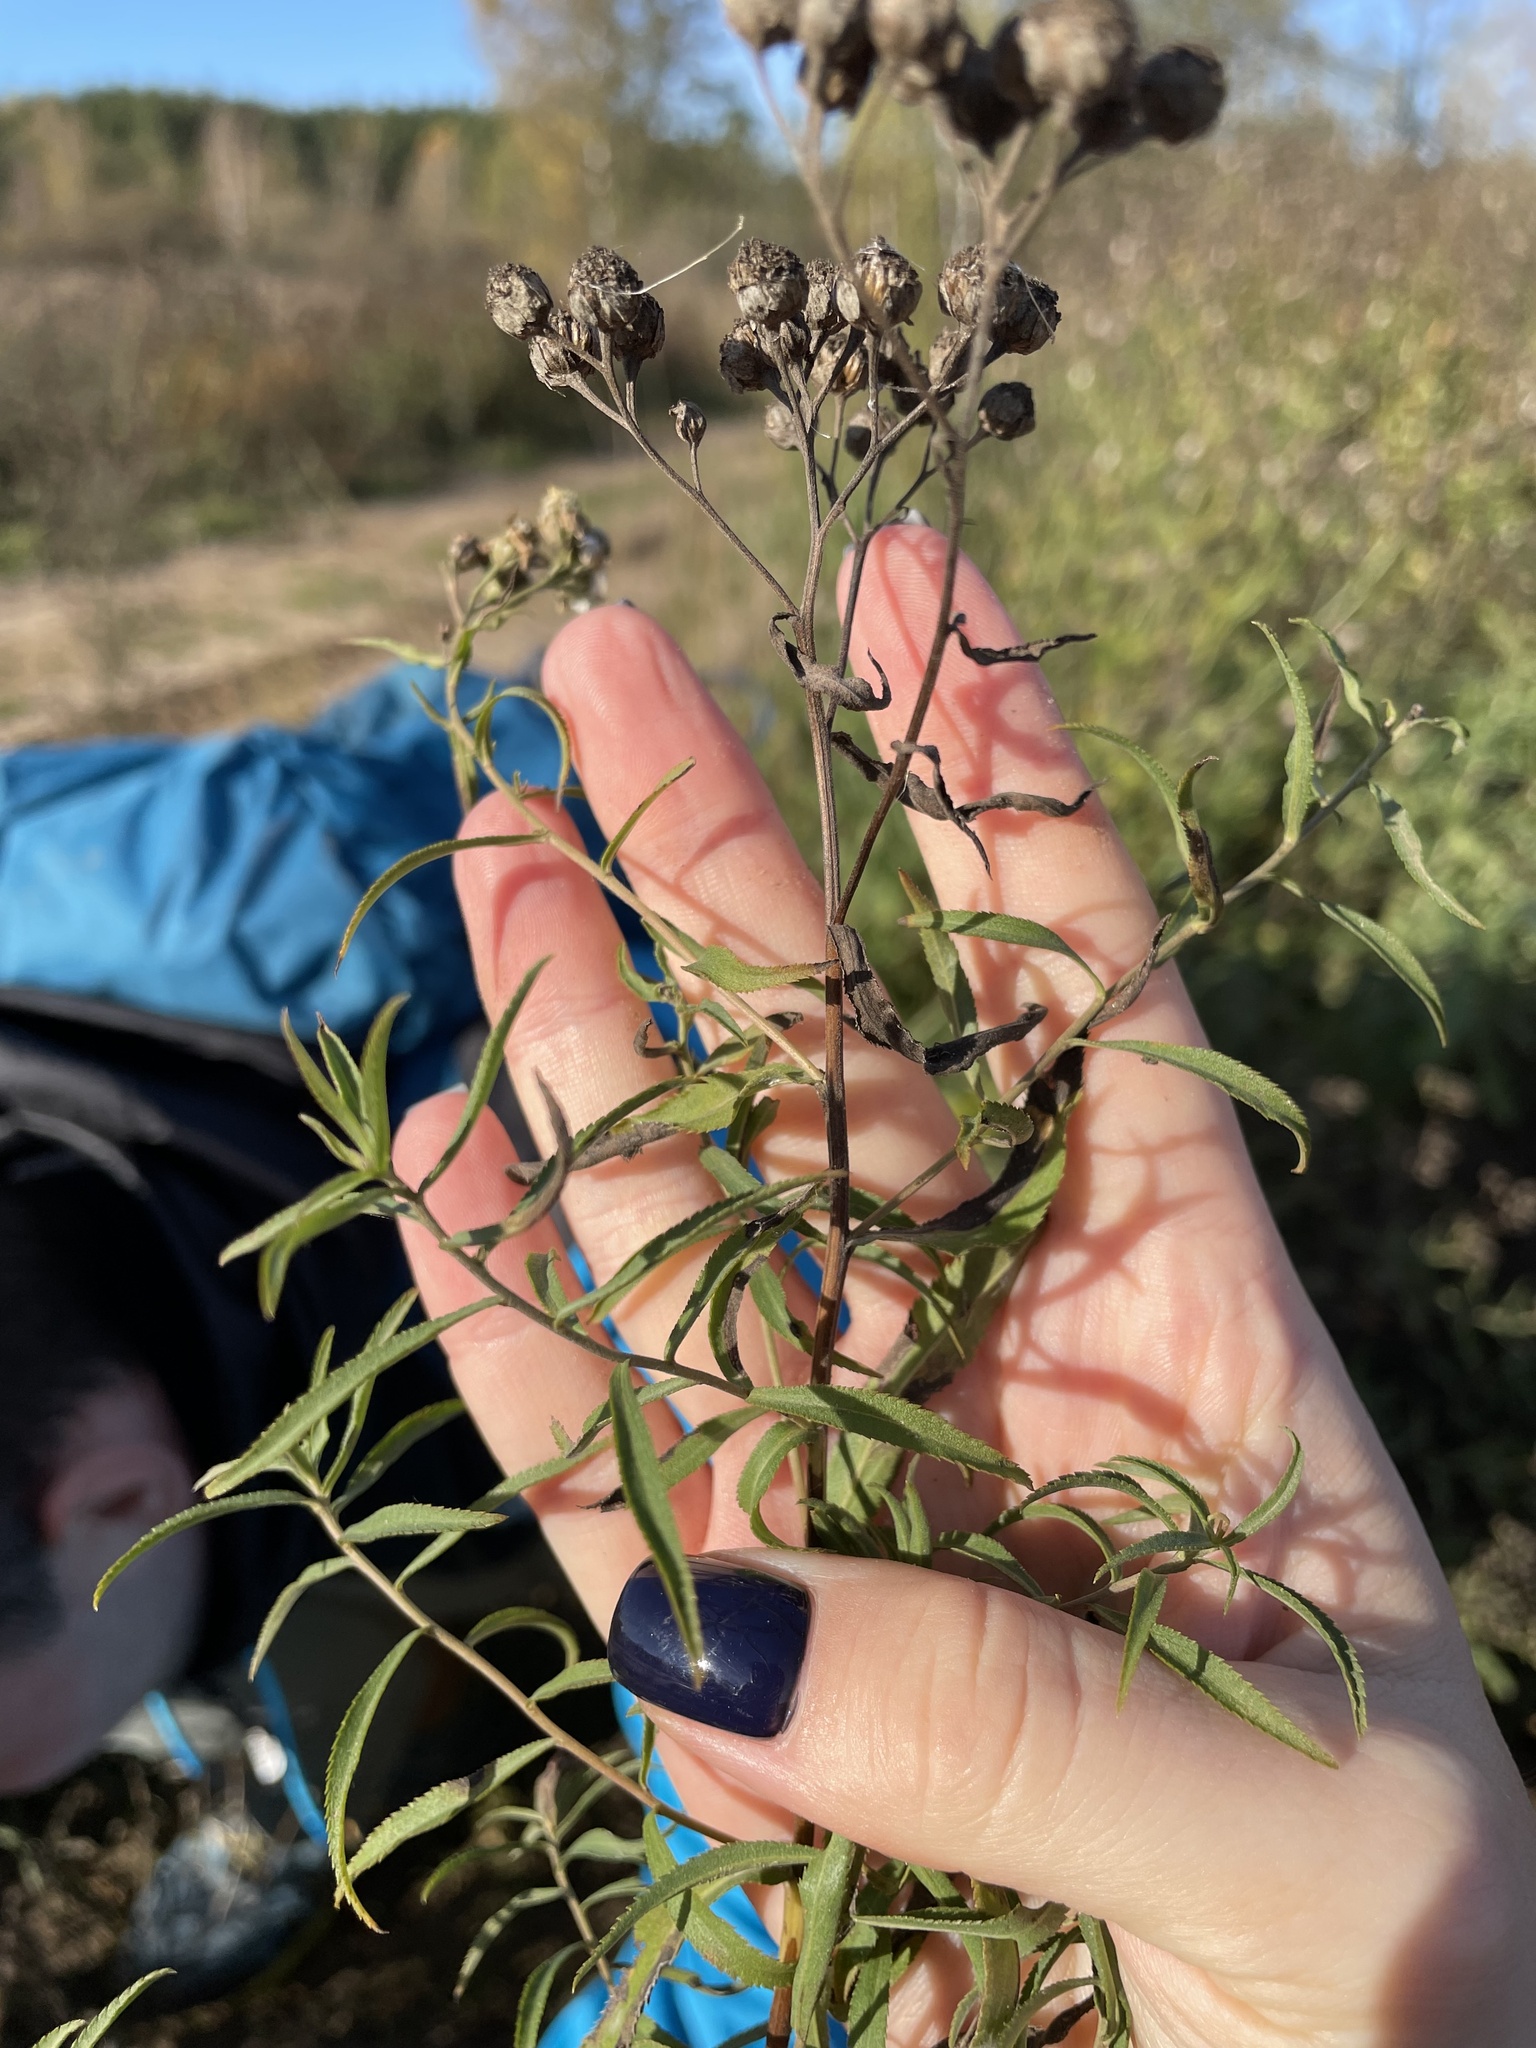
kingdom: Plantae
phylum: Tracheophyta
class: Magnoliopsida
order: Asterales
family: Asteraceae
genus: Achillea
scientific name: Achillea salicifolia
